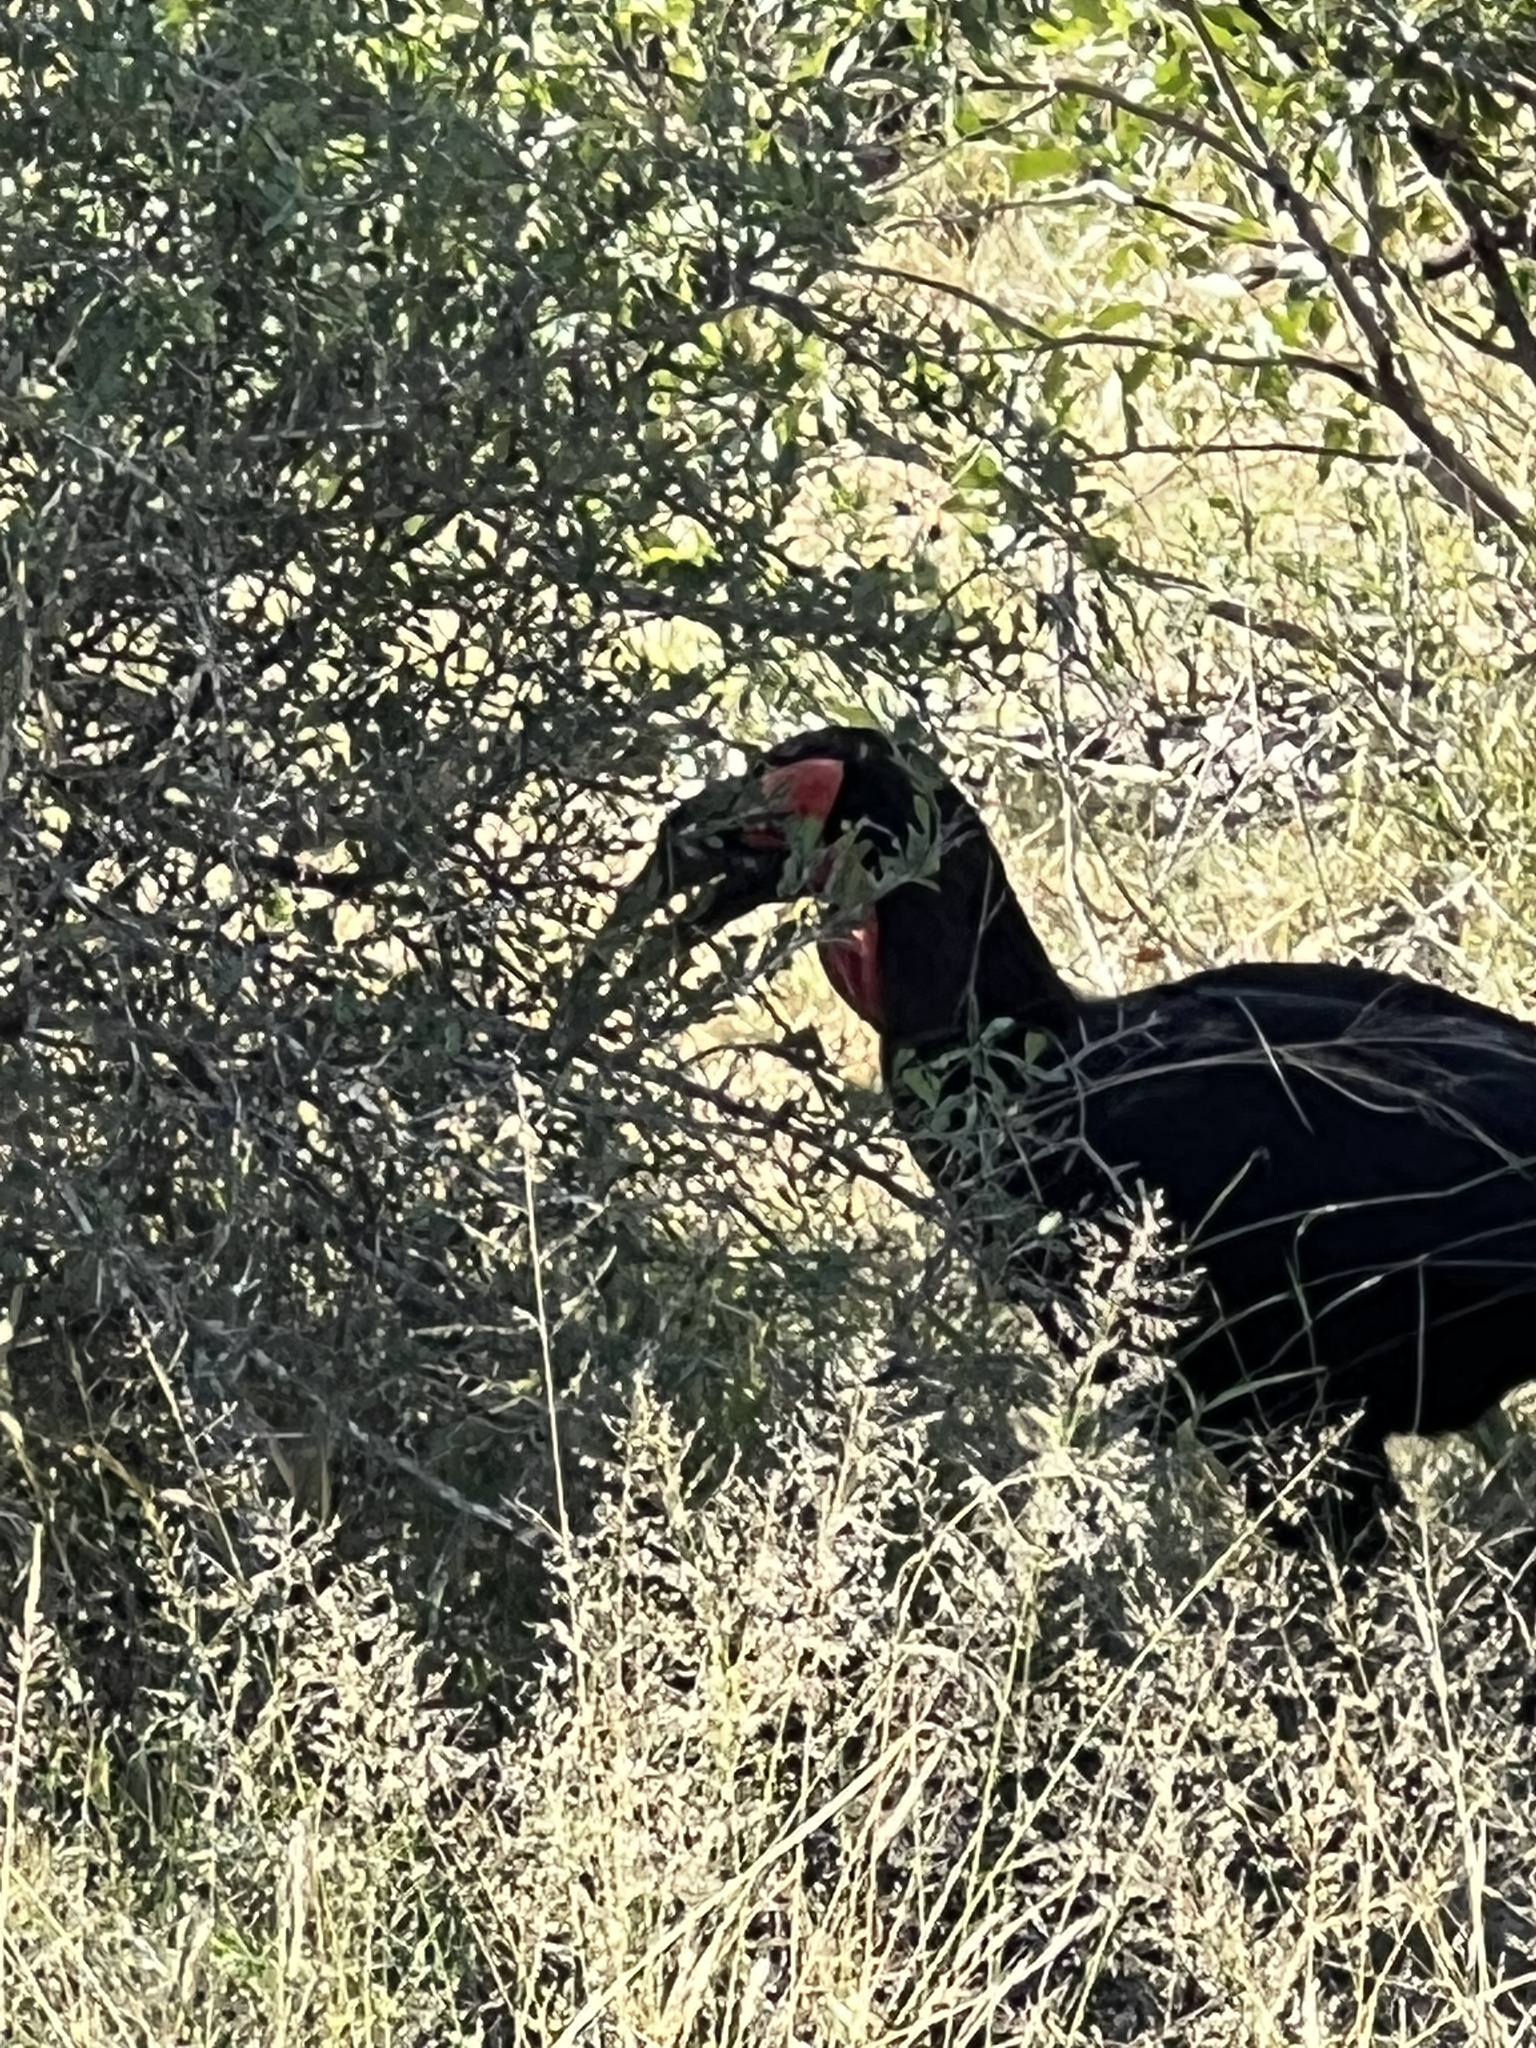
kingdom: Animalia
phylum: Chordata
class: Aves
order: Bucerotiformes
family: Bucorvidae
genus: Bucorvus
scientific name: Bucorvus leadbeateri
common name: Southern ground-hornbill
